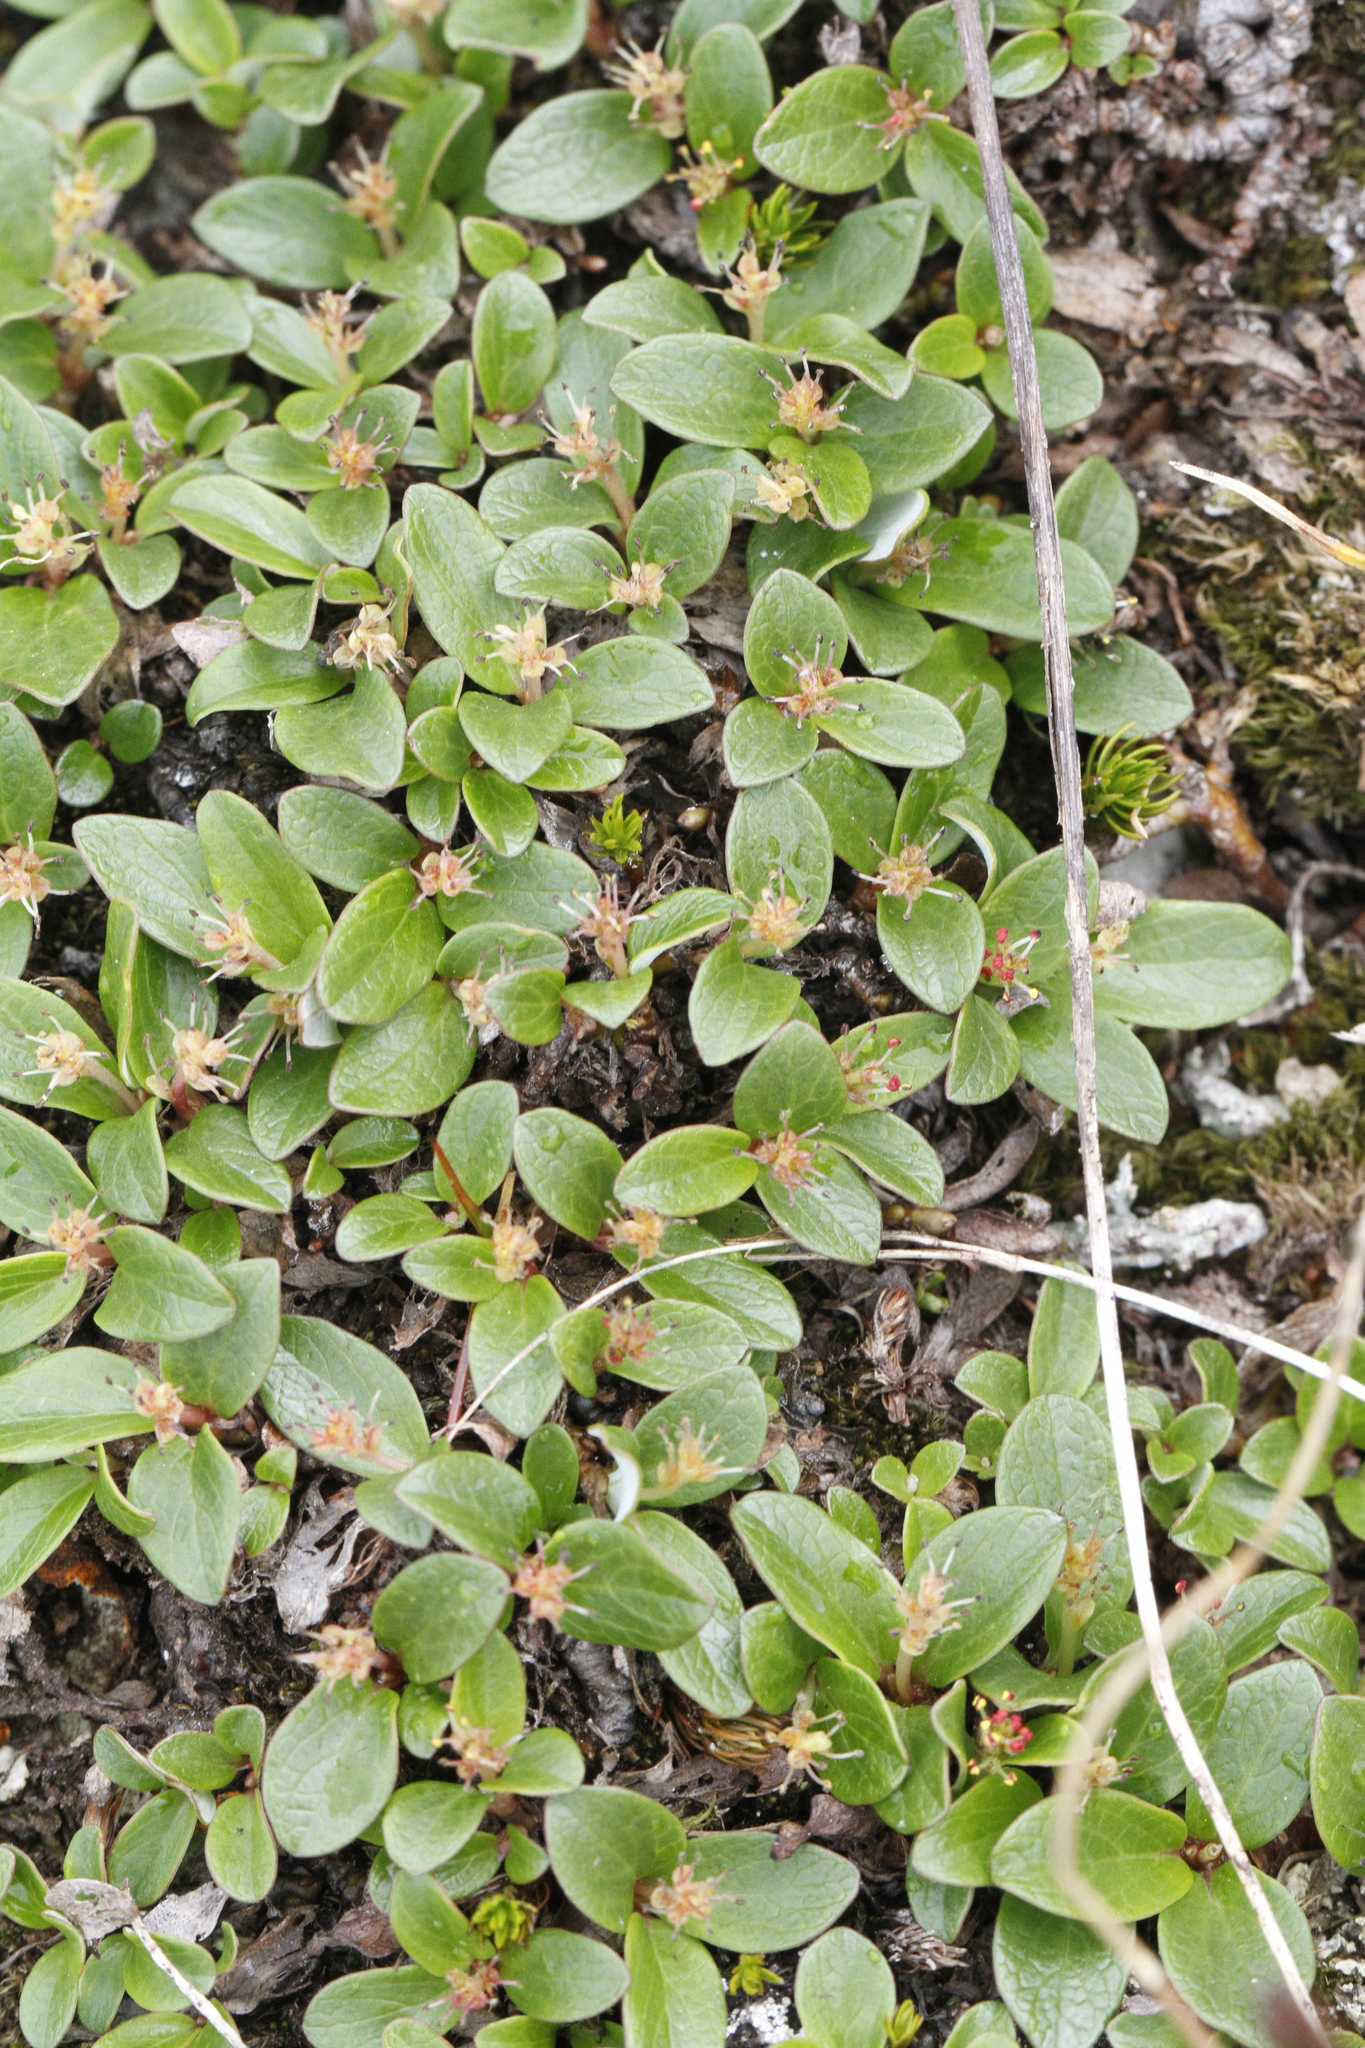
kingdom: Plantae
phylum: Tracheophyta
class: Magnoliopsida
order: Malpighiales
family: Salicaceae
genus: Salix
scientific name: Salix nivalis
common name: Dwarf snow willow
